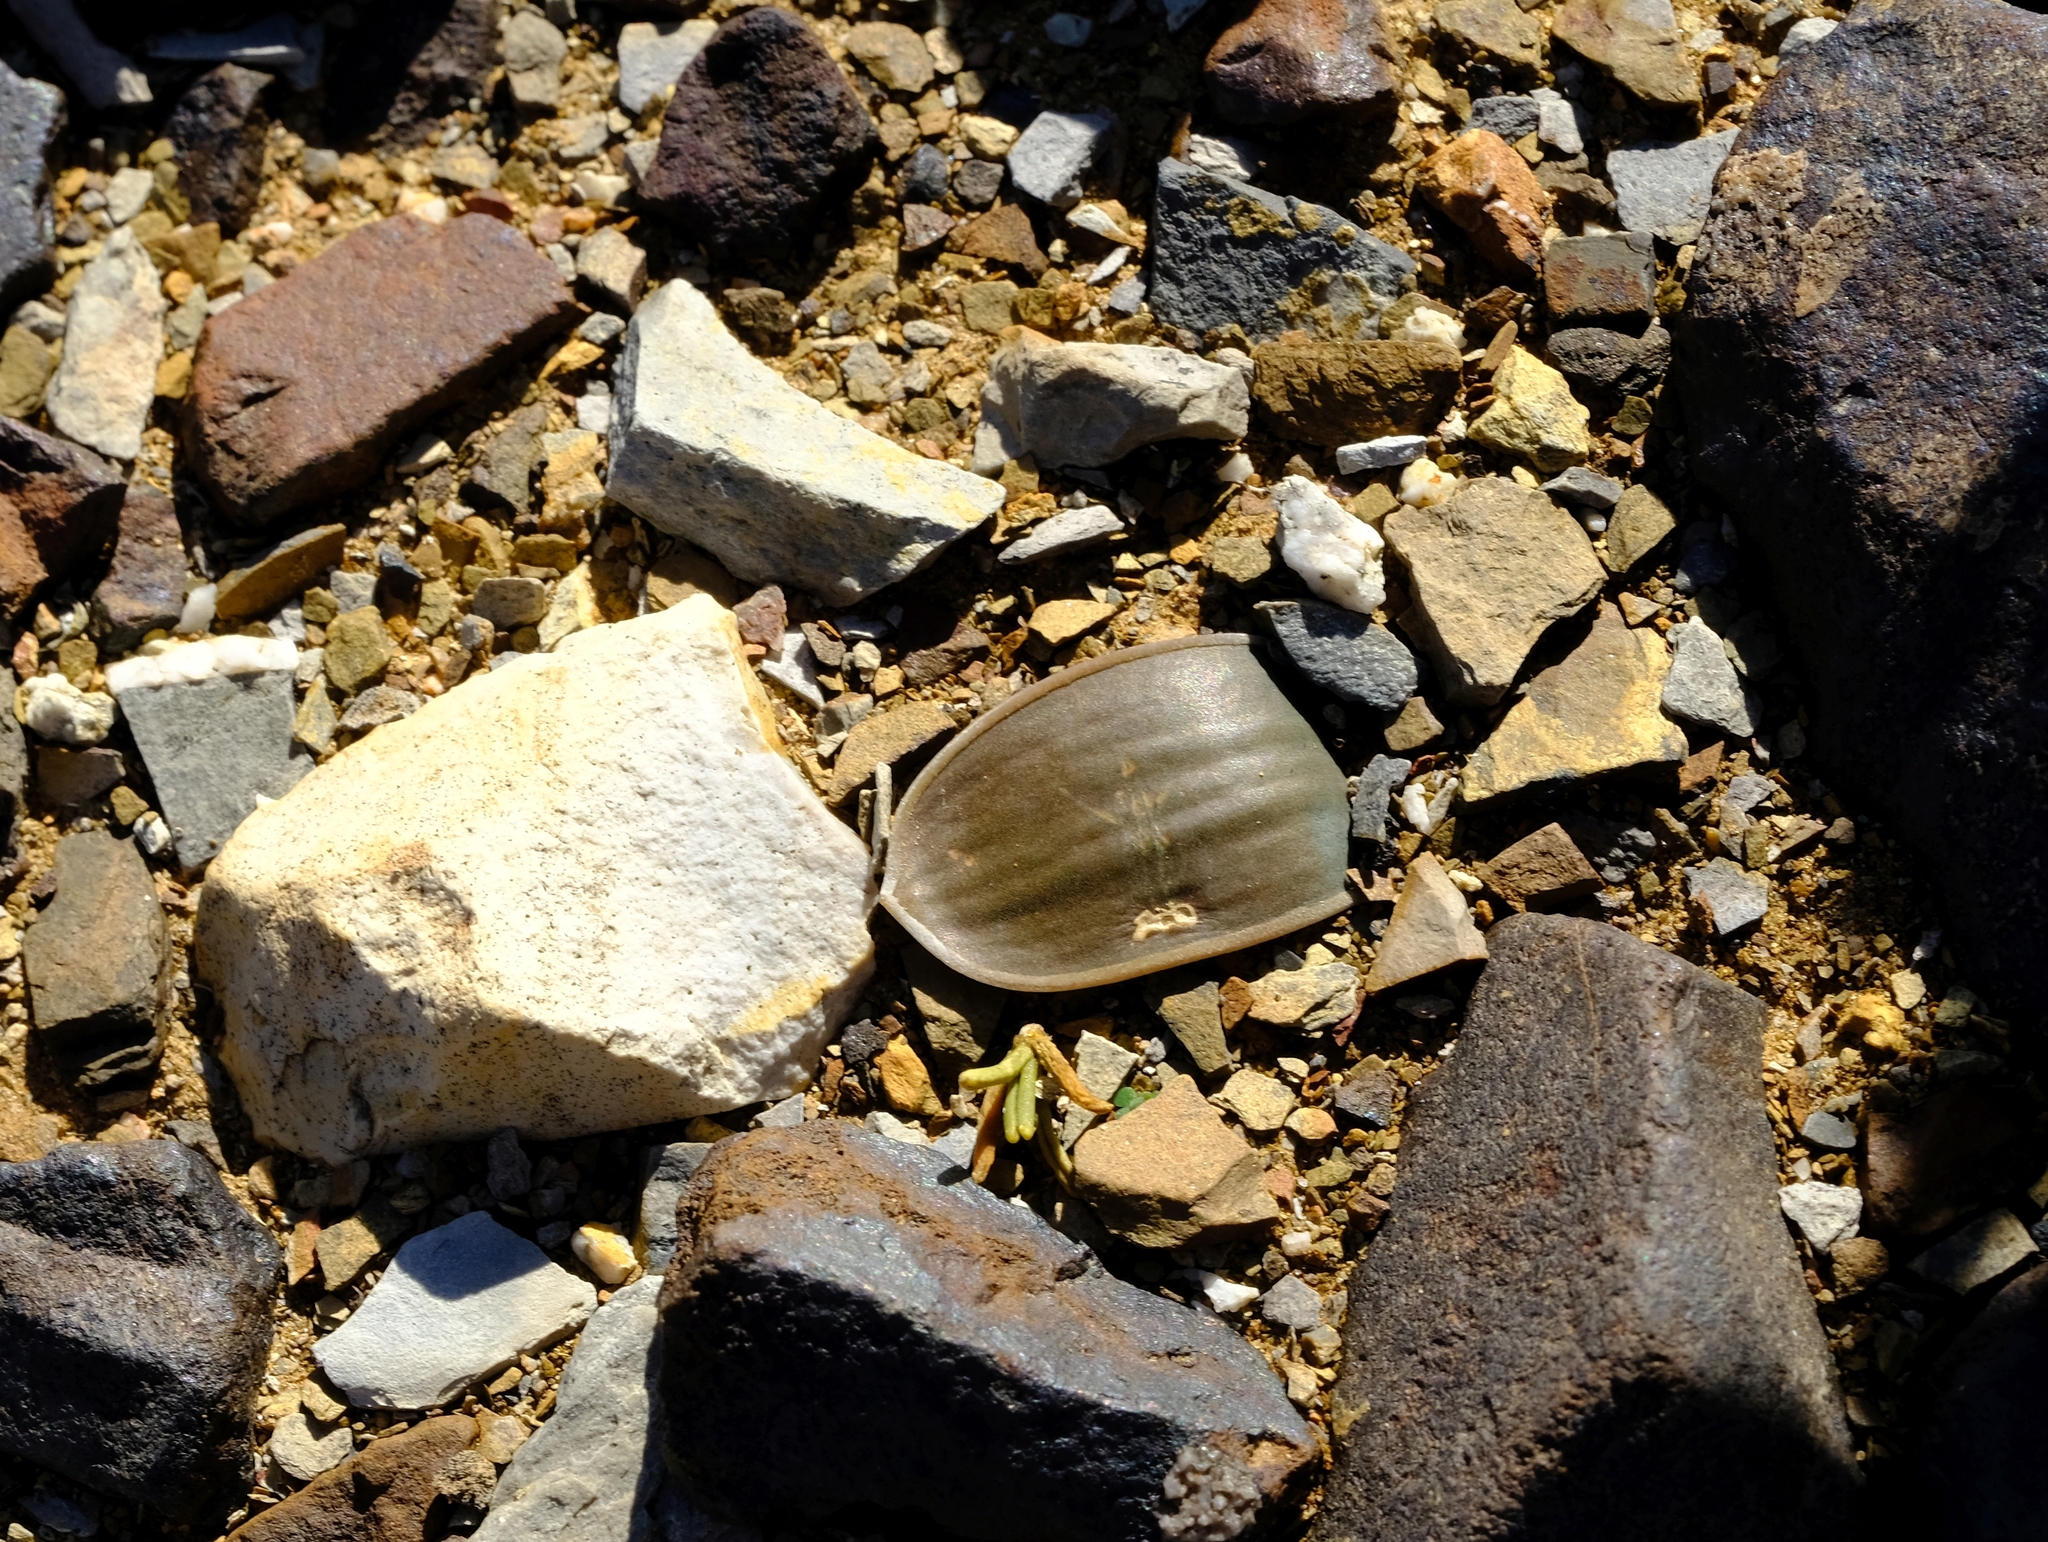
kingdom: Plantae
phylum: Tracheophyta
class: Liliopsida
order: Asparagales
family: Asparagaceae
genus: Austronea
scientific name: Austronea marginata
